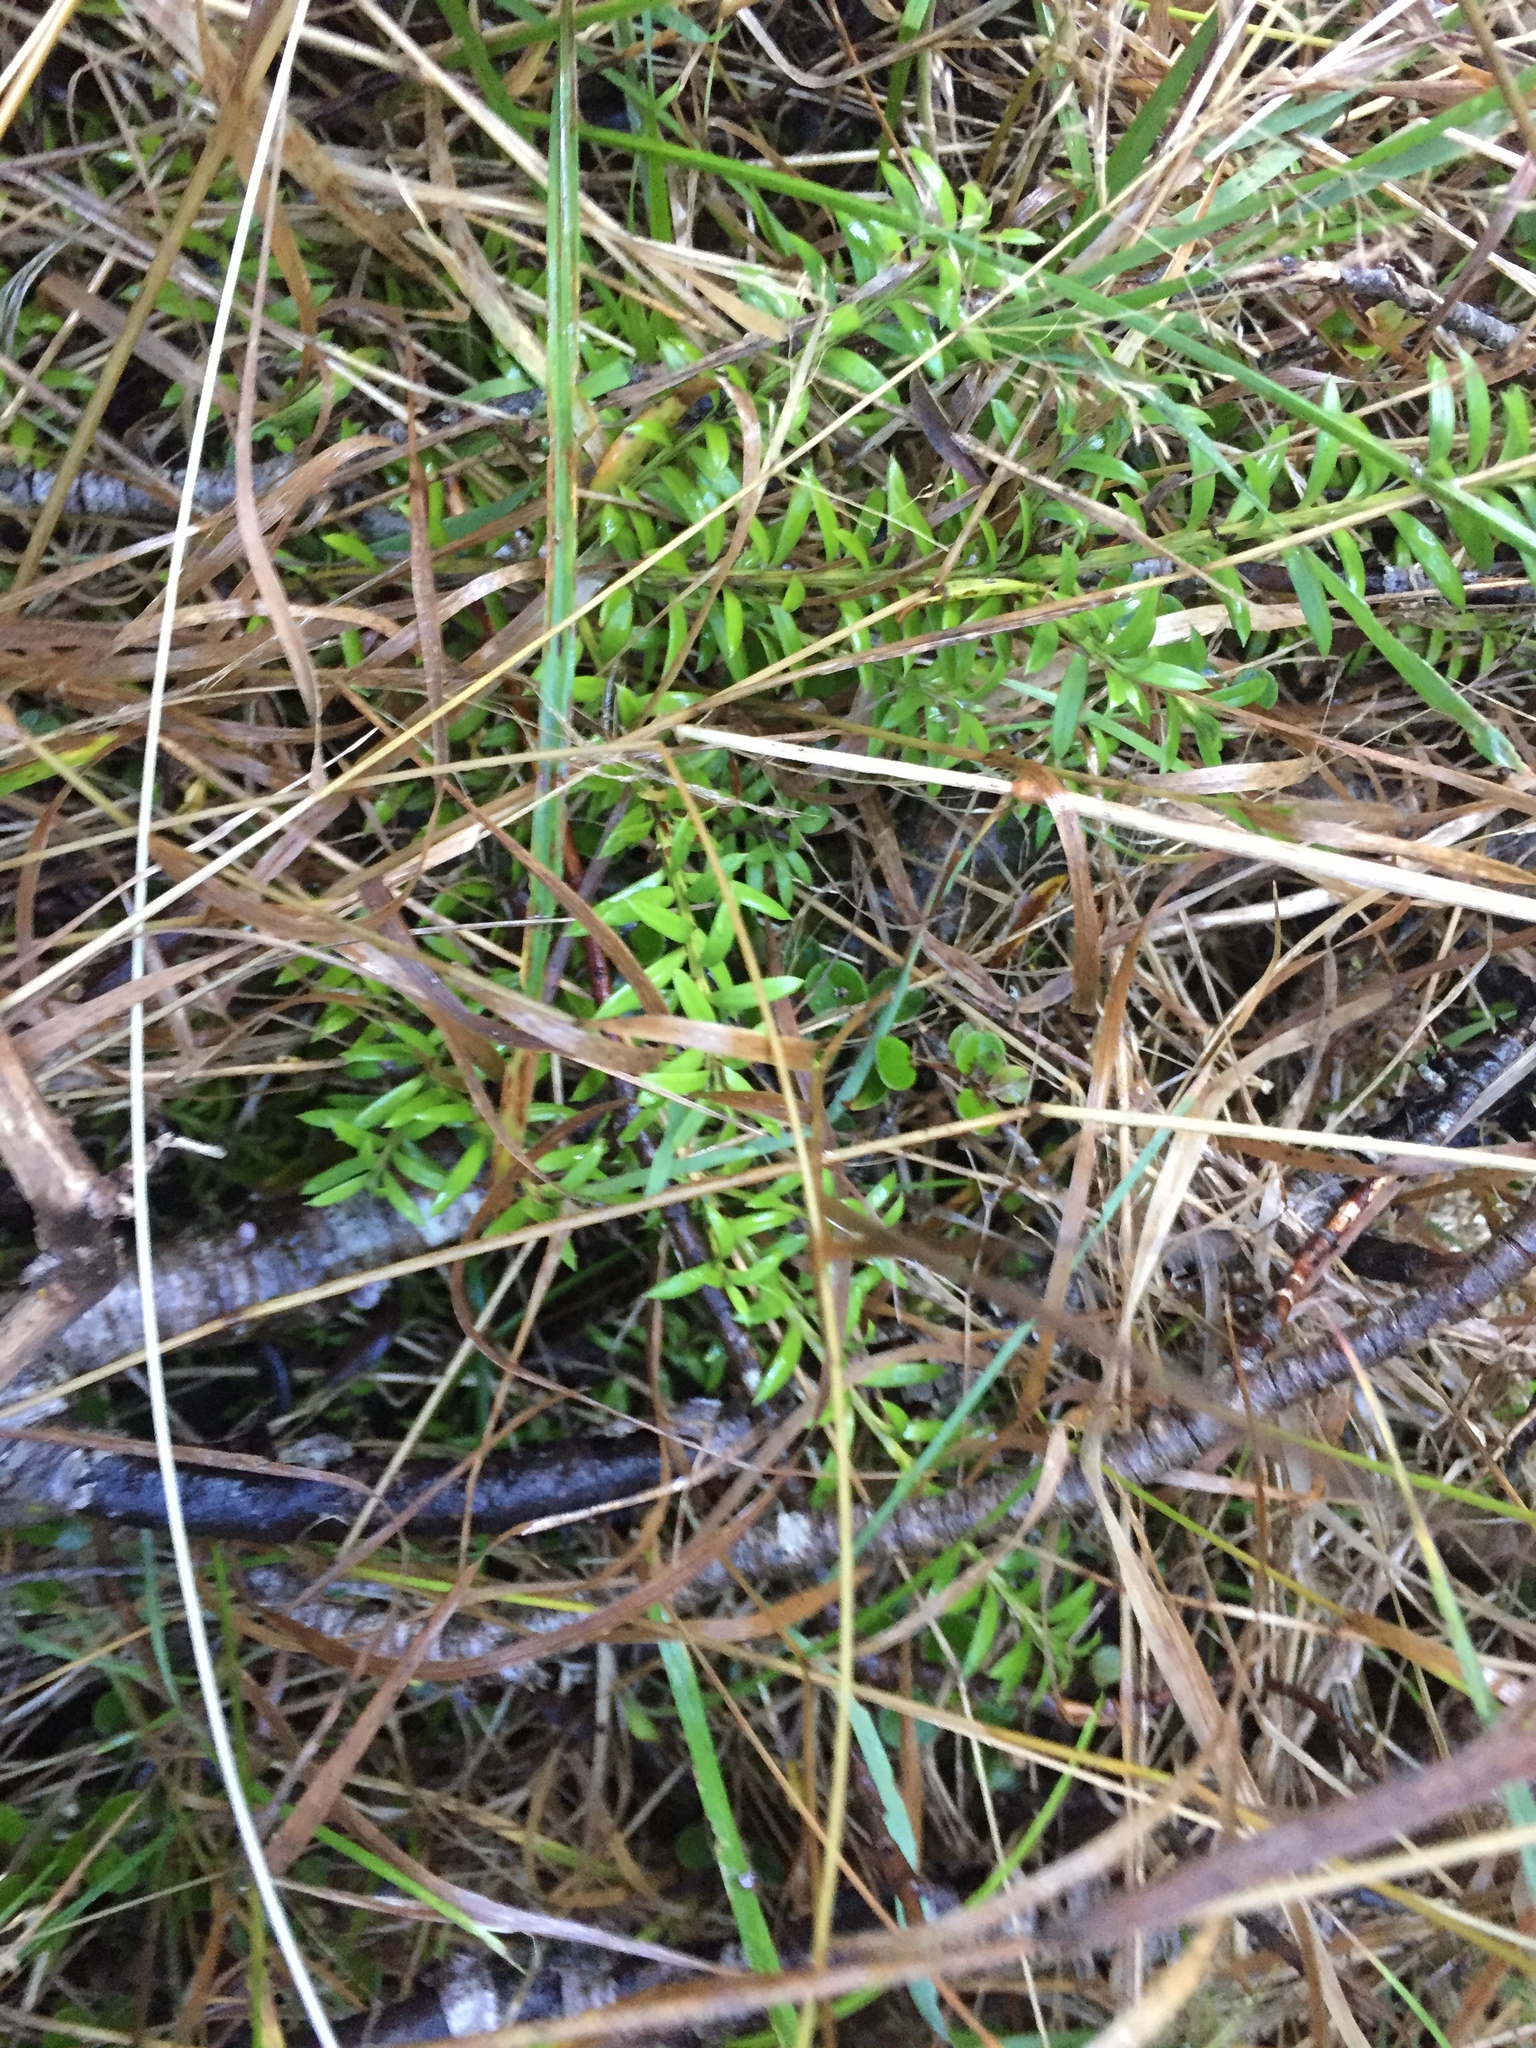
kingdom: Plantae
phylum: Tracheophyta
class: Pinopsida
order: Pinales
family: Podocarpaceae
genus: Podocarpus
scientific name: Podocarpus nivalis
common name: Alpine totara
